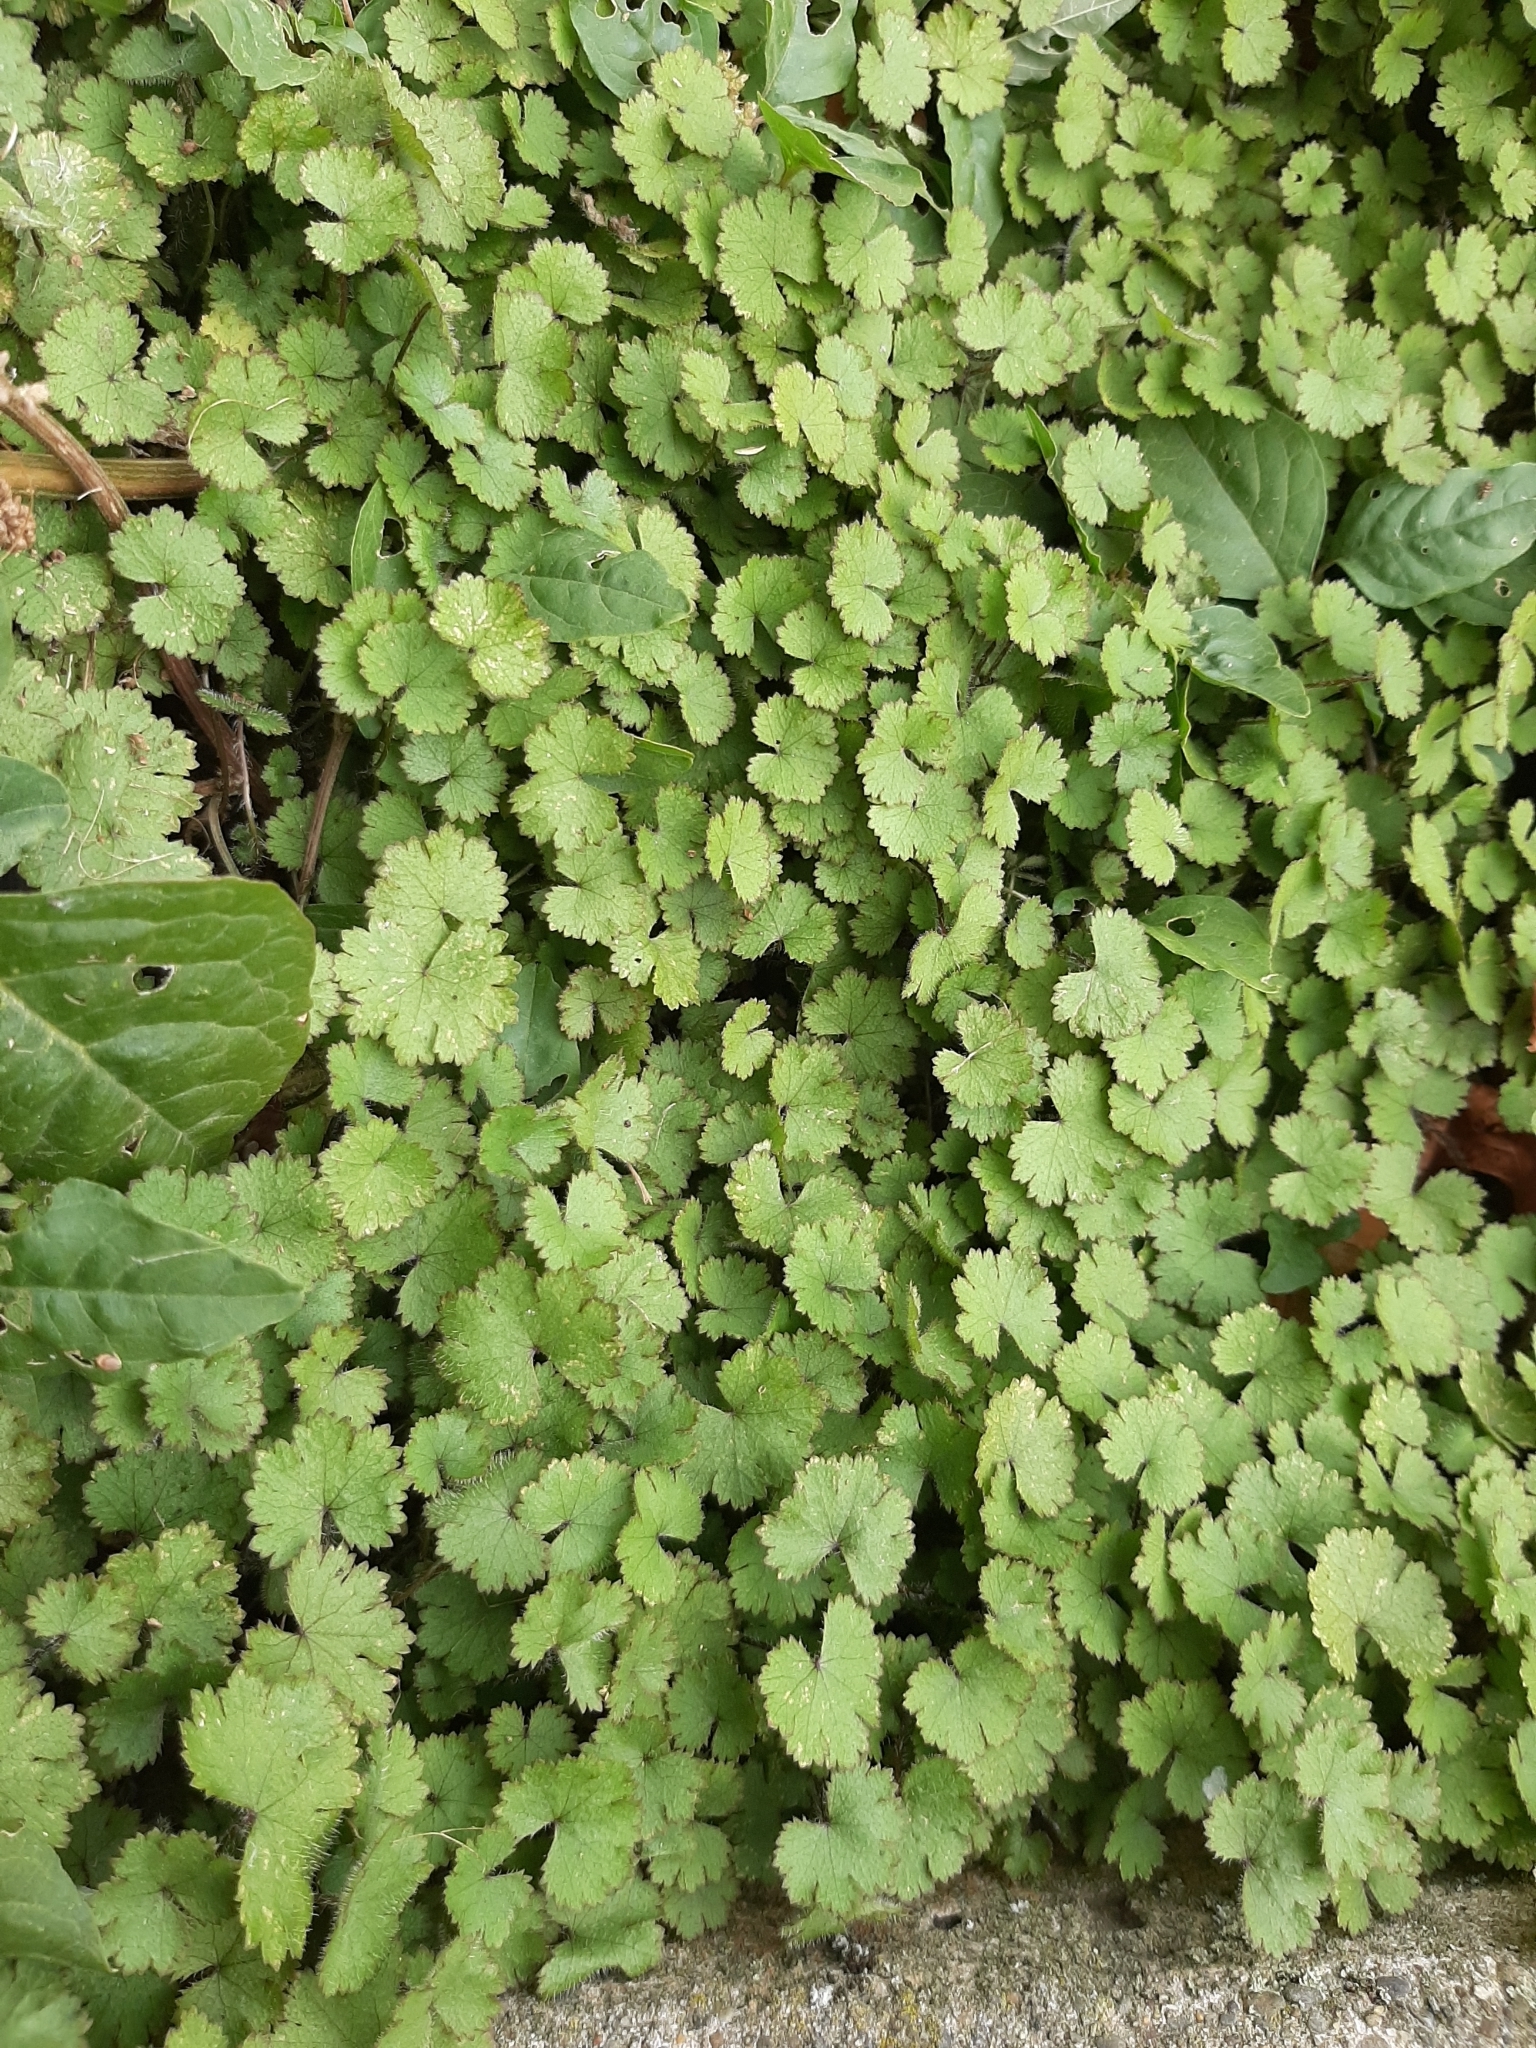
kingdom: Plantae
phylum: Tracheophyta
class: Magnoliopsida
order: Apiales
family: Araliaceae
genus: Hydrocotyle
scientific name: Hydrocotyle moschata
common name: Hairy pennywort
